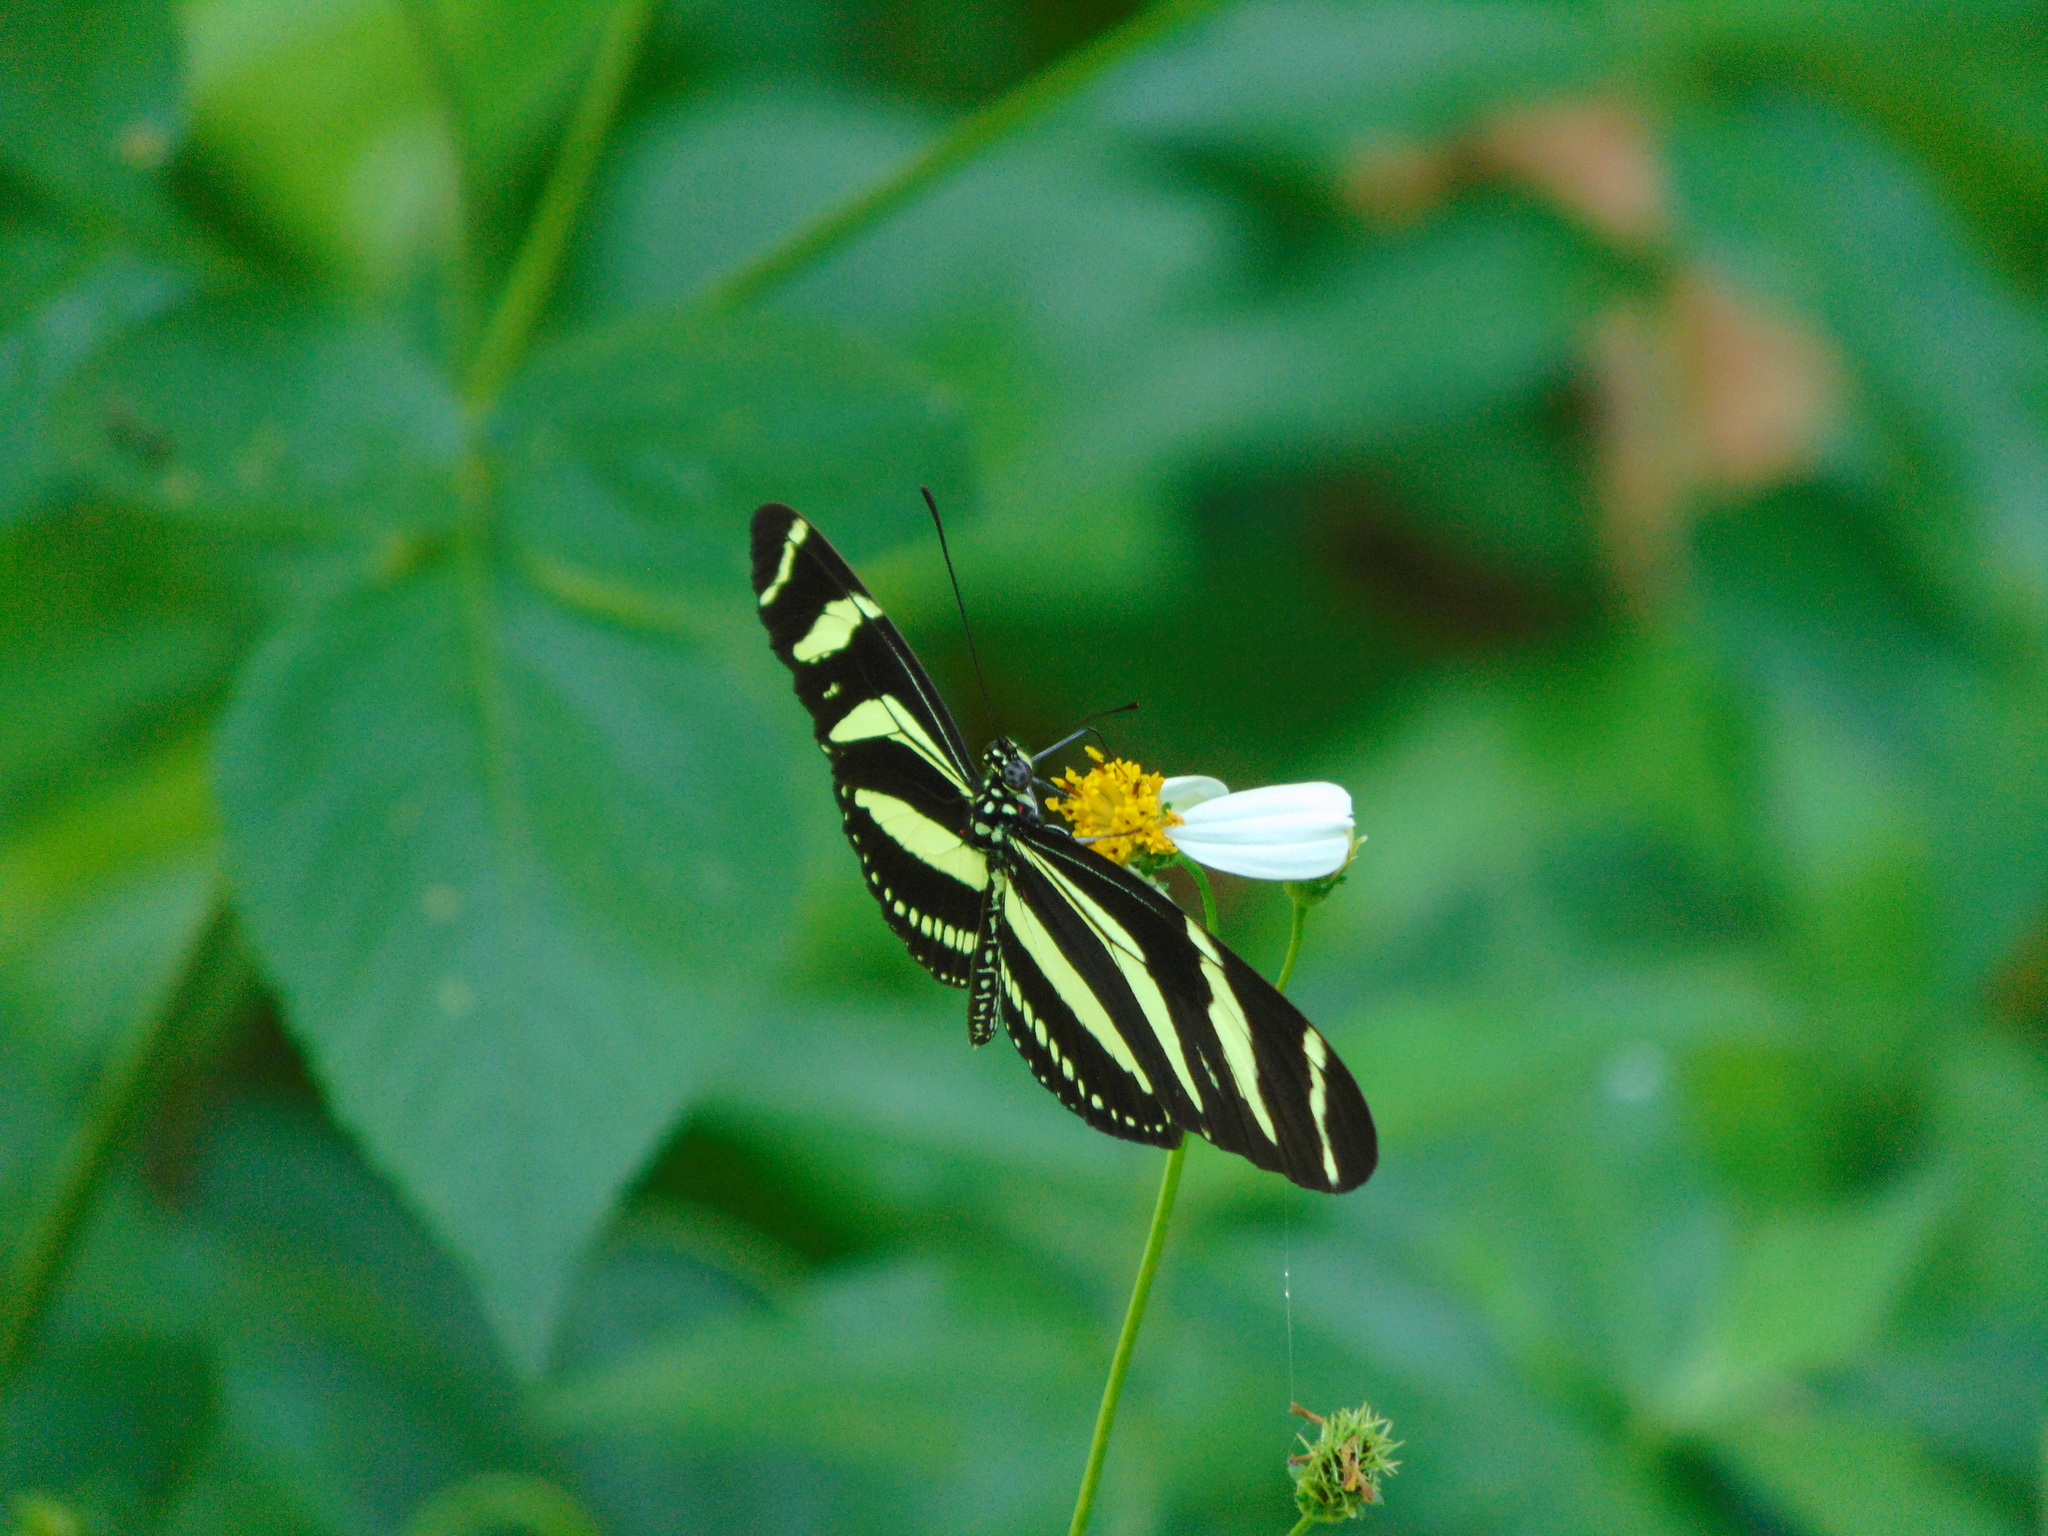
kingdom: Animalia
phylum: Arthropoda
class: Insecta
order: Lepidoptera
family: Nymphalidae
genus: Heliconius
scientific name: Heliconius charithonia
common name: Zebra long wing
